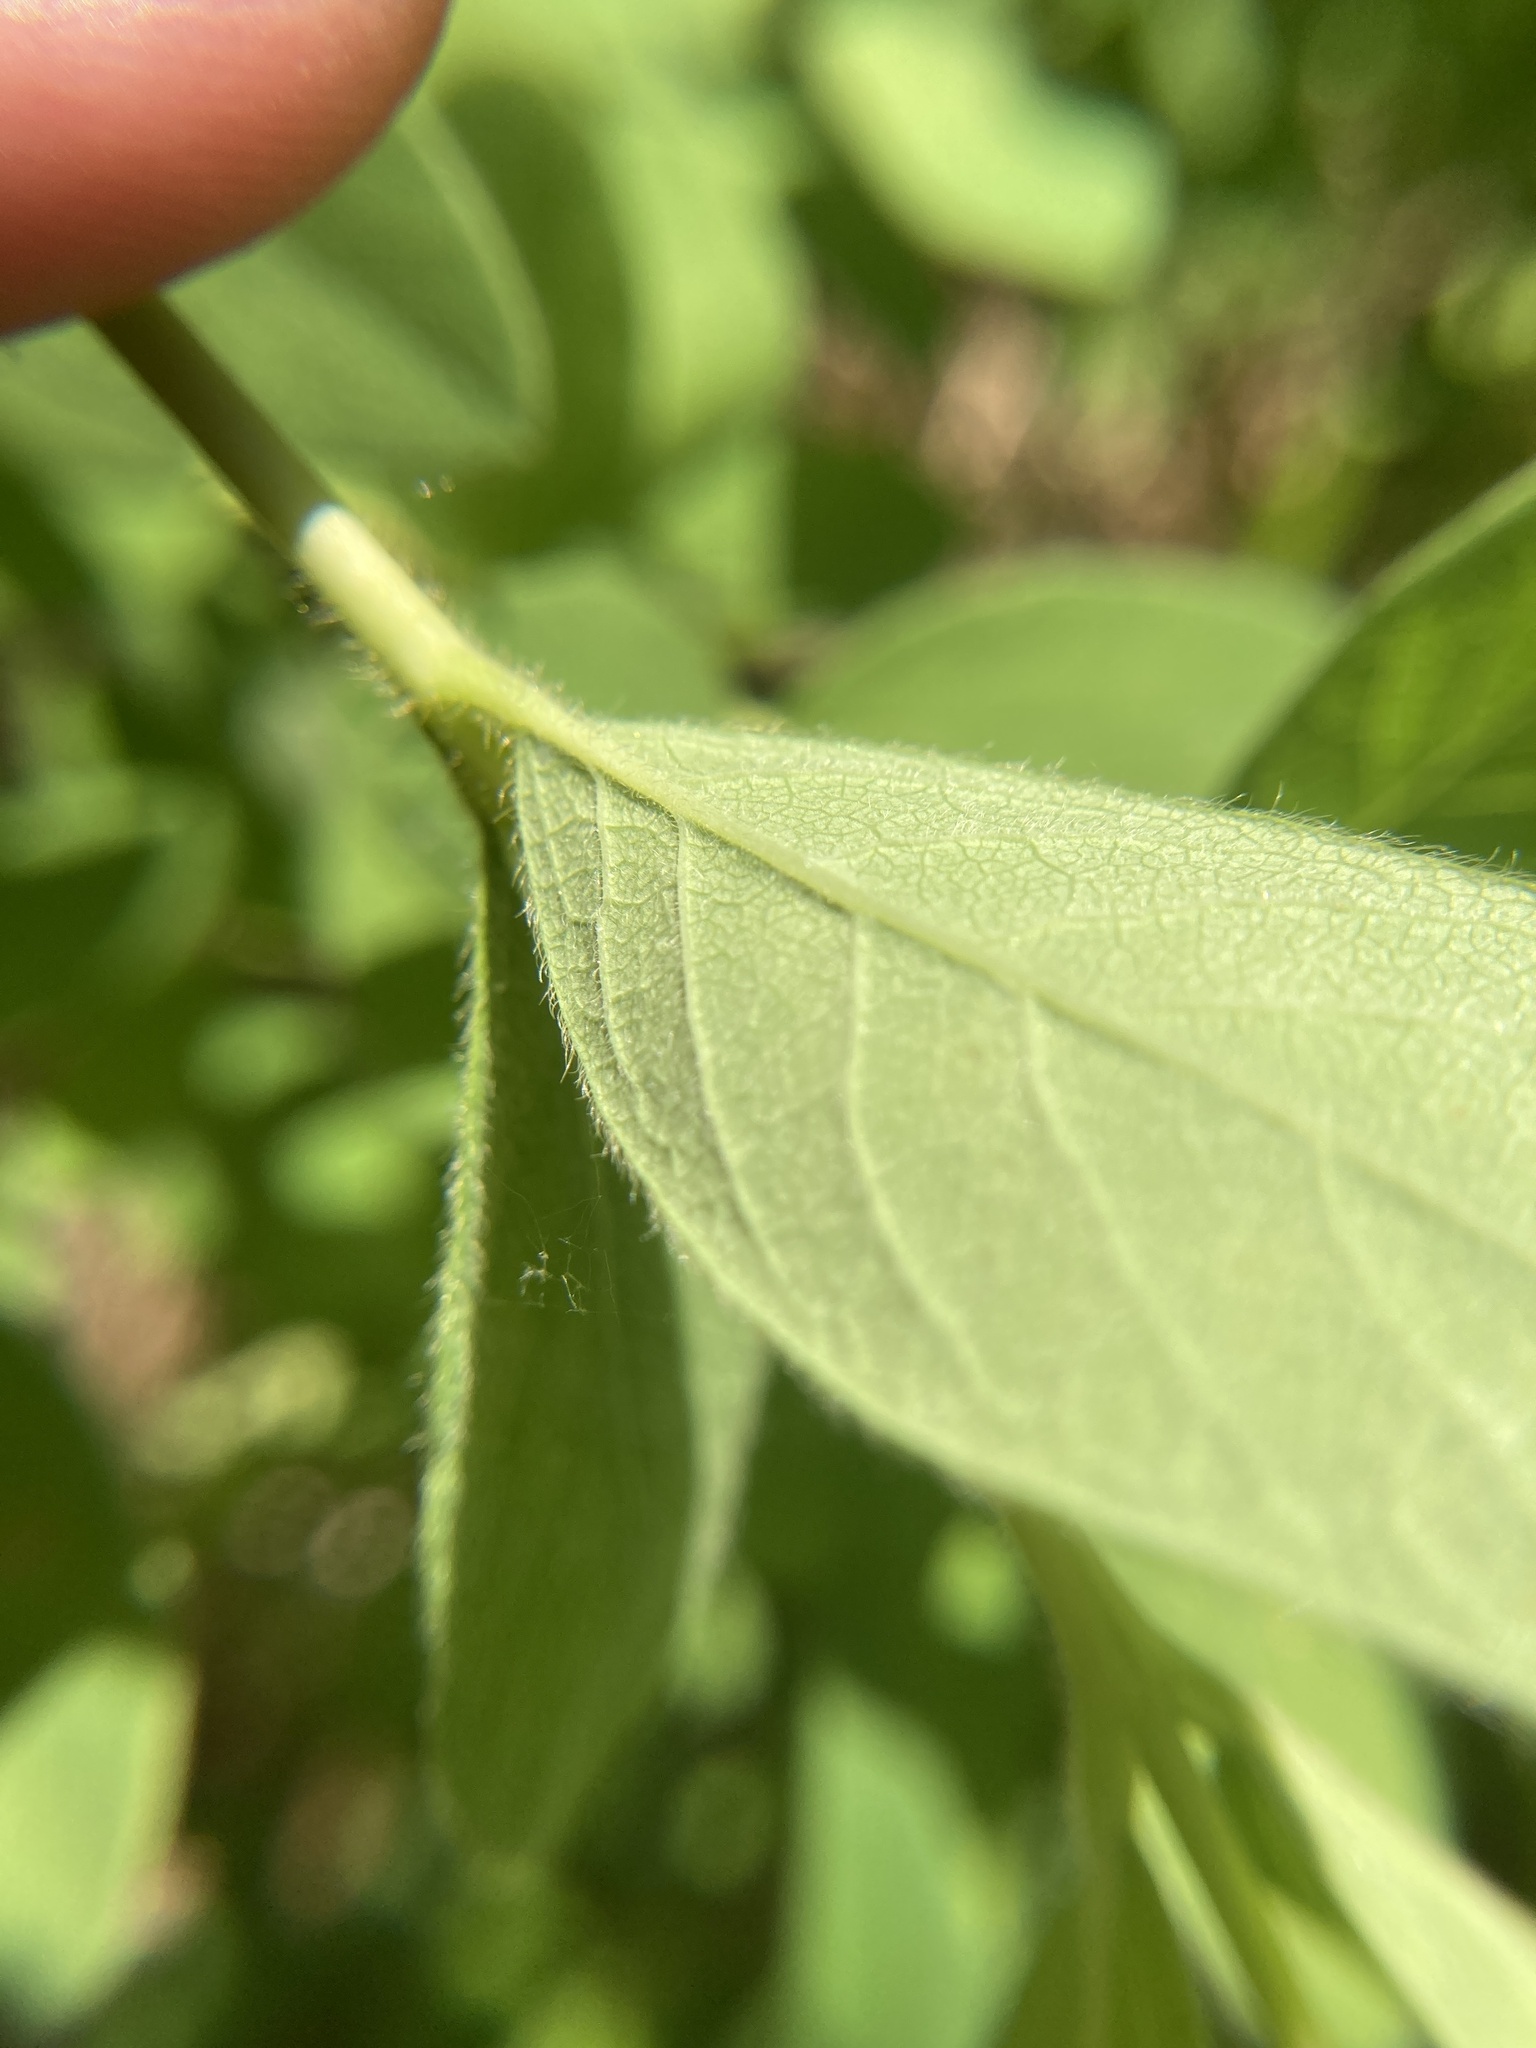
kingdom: Plantae
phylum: Tracheophyta
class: Magnoliopsida
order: Dipsacales
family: Caprifoliaceae
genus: Lonicera
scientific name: Lonicera villosa
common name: Mountain fly-honeysuckle
